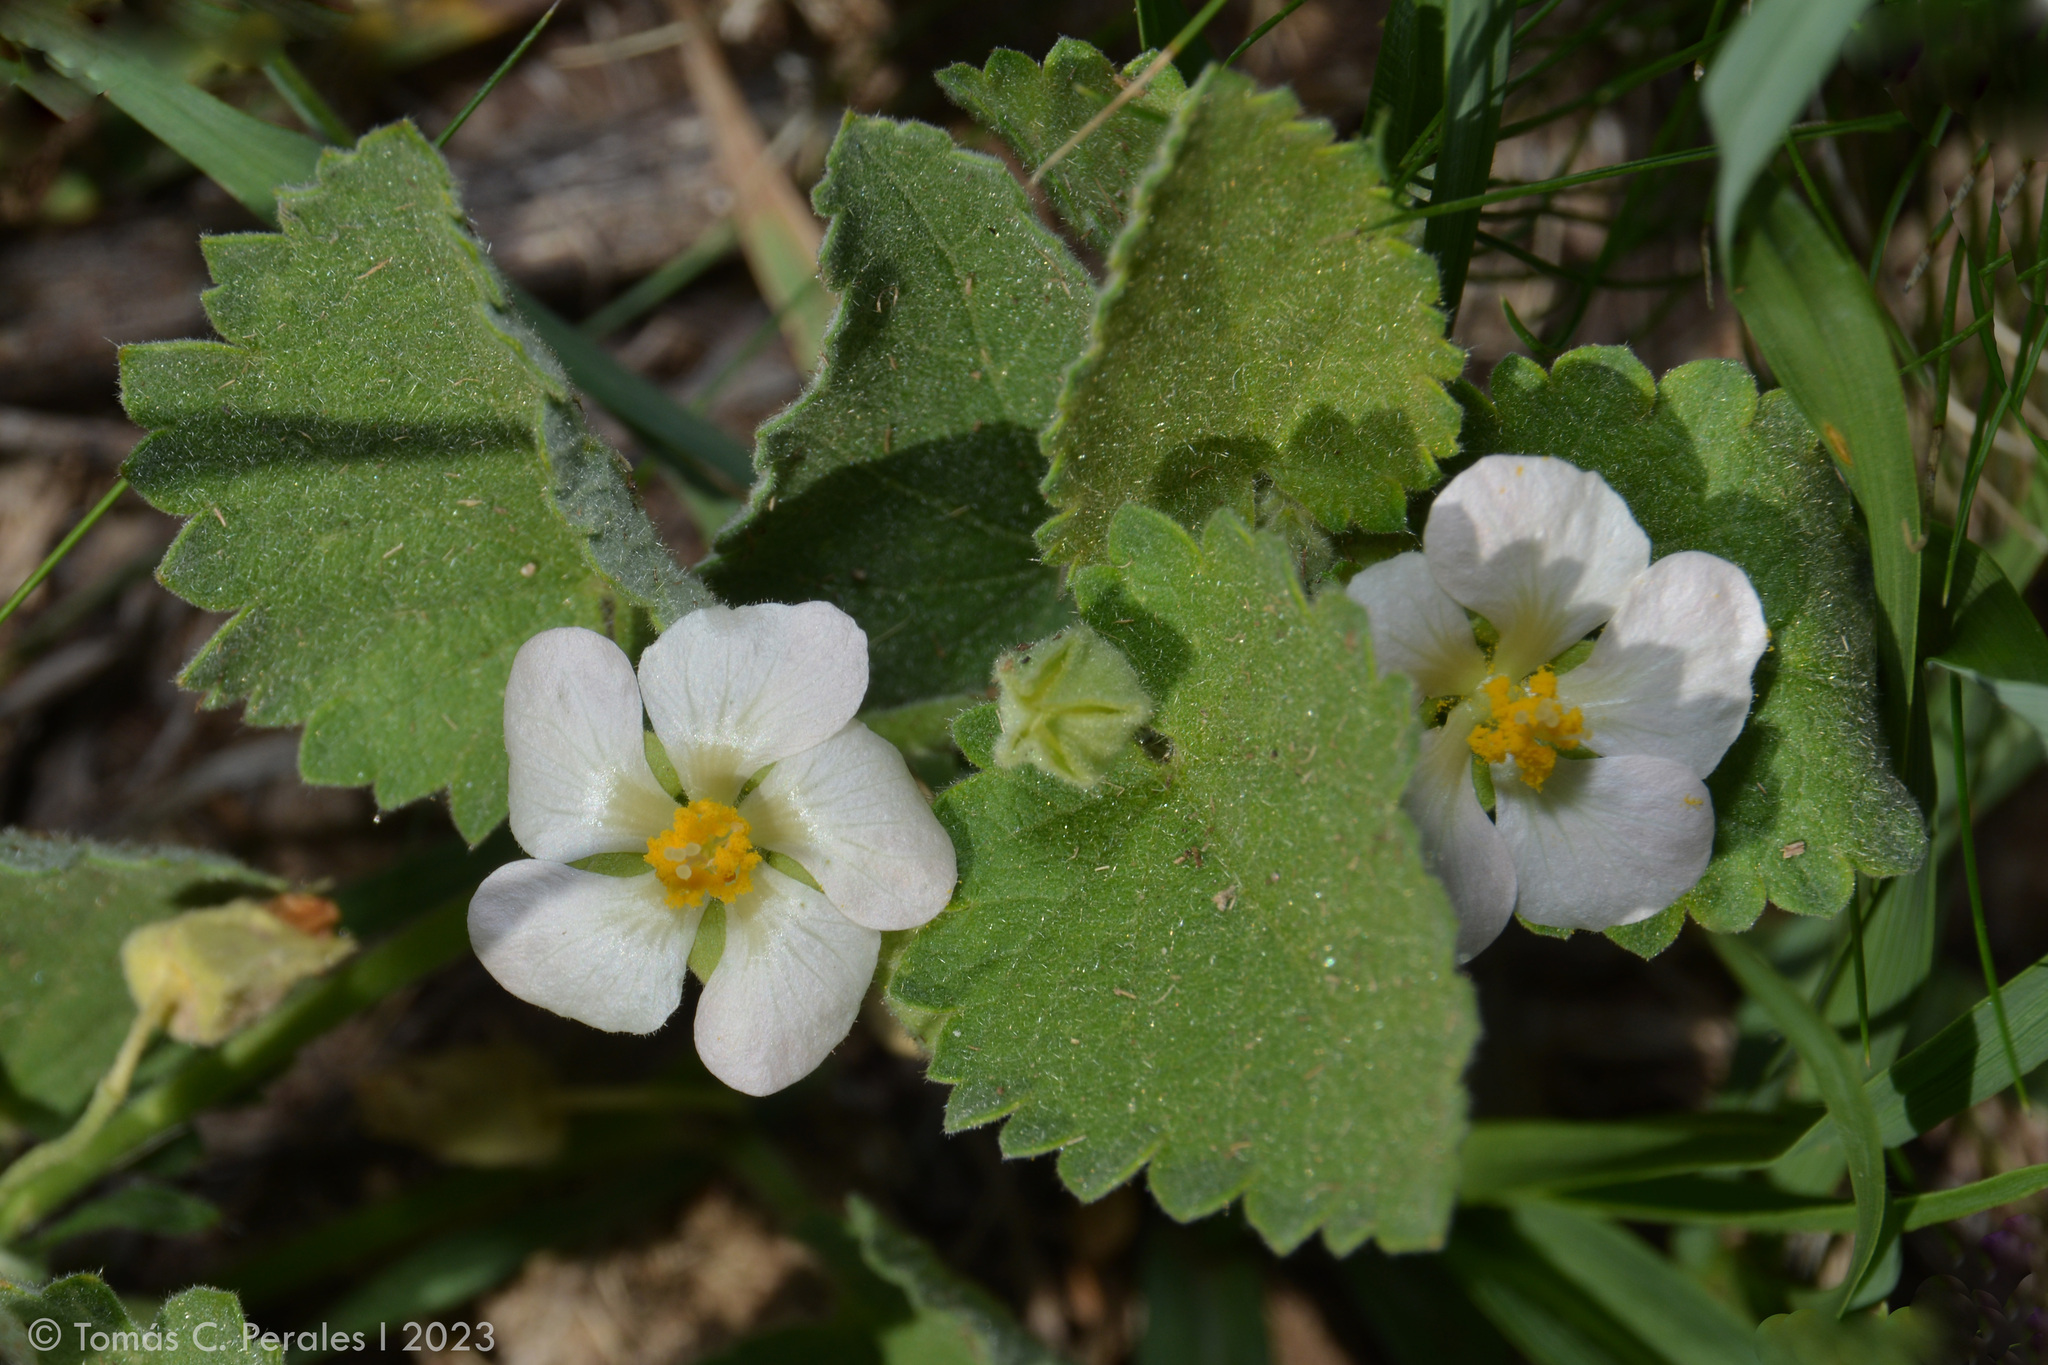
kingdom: Plantae
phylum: Tracheophyta
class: Magnoliopsida
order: Malvales
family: Malvaceae
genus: Krapovickasia
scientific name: Krapovickasia flavescens
